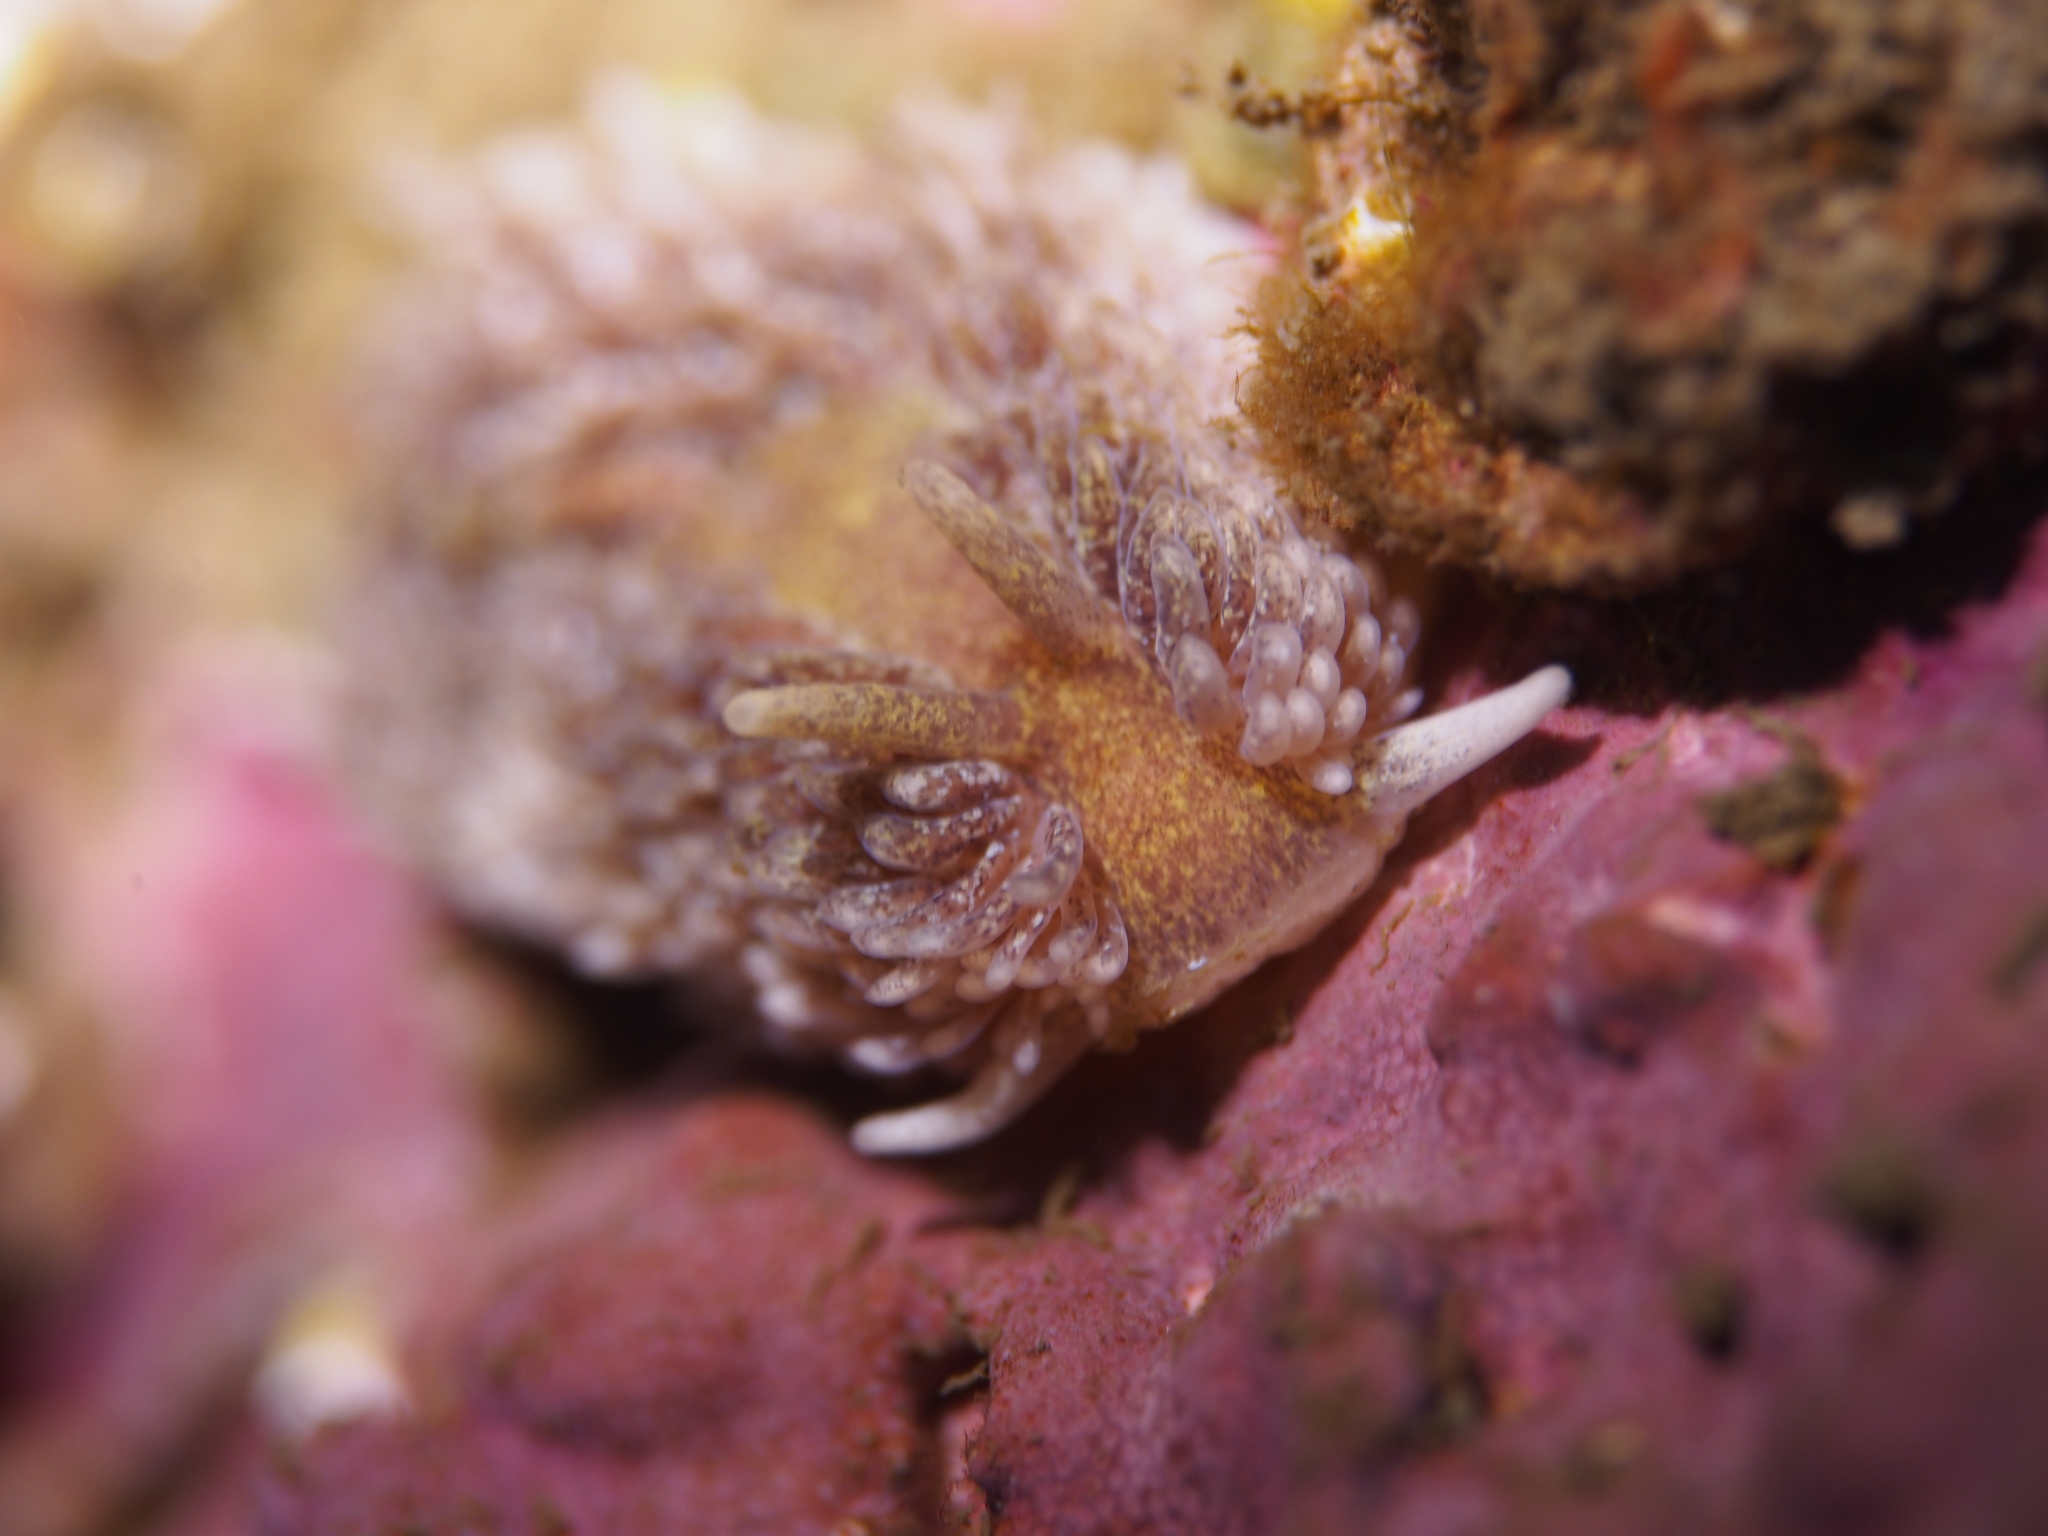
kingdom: Animalia
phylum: Mollusca
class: Gastropoda
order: Nudibranchia
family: Aeolidiidae
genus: Aeolidia
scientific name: Aeolidia papillosa
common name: Common grey sea slug
